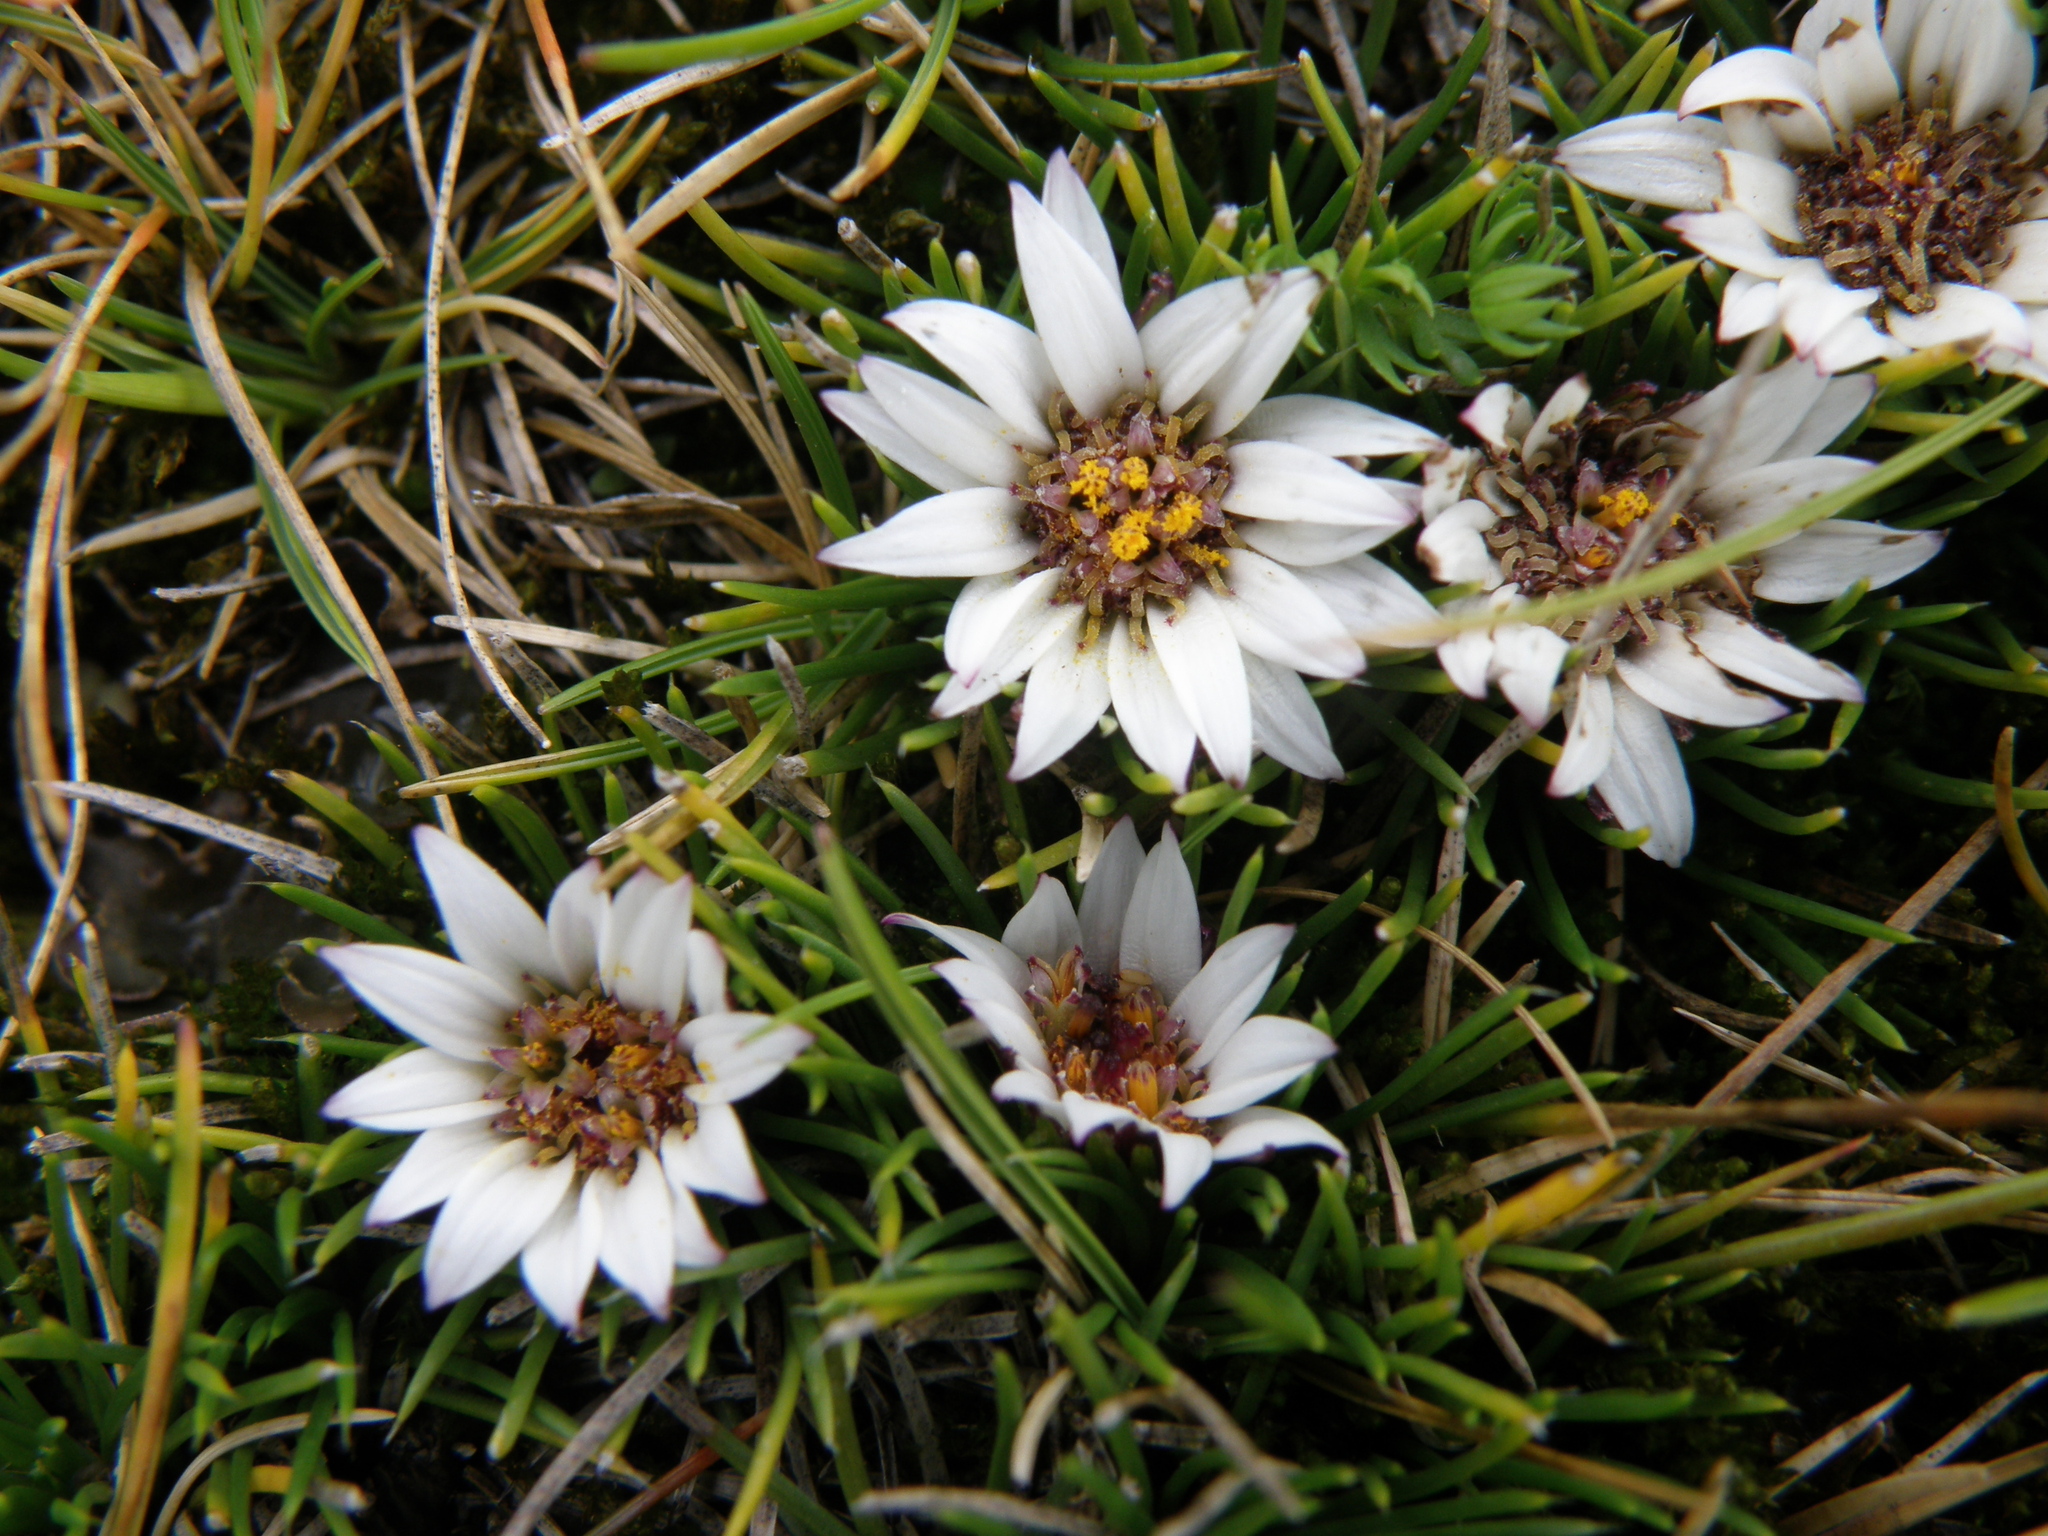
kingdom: Plantae
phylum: Tracheophyta
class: Magnoliopsida
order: Asterales
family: Asteraceae
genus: Rockhausenia
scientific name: Rockhausenia caespitosa
